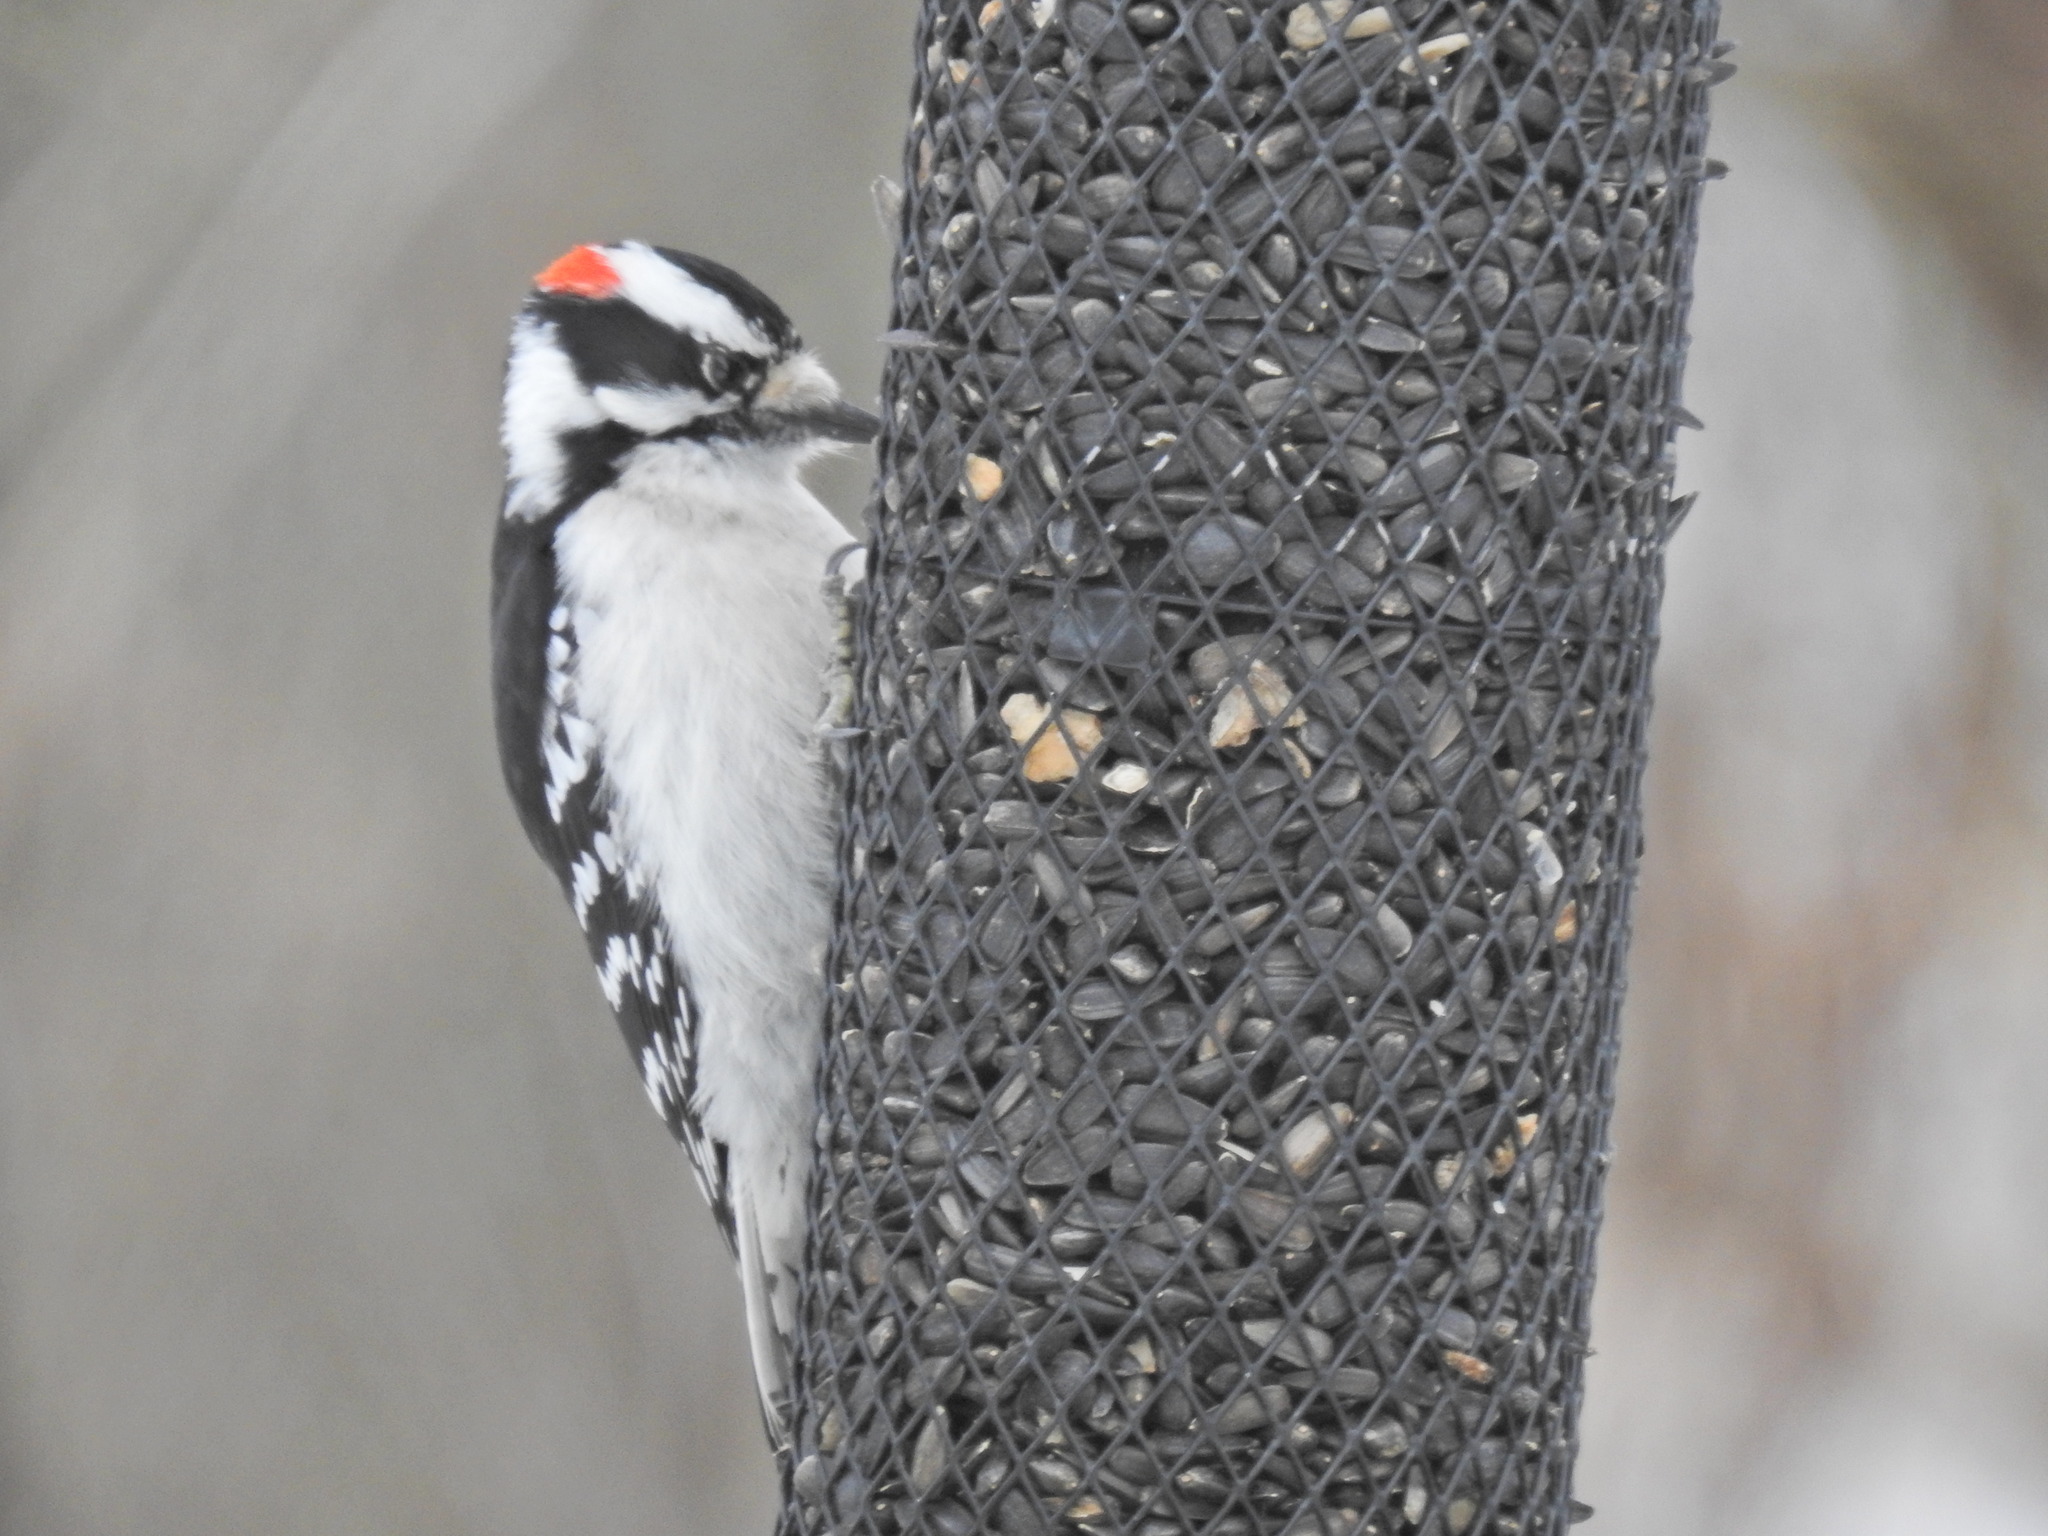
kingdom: Animalia
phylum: Chordata
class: Aves
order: Piciformes
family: Picidae
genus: Dryobates
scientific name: Dryobates pubescens
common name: Downy woodpecker
